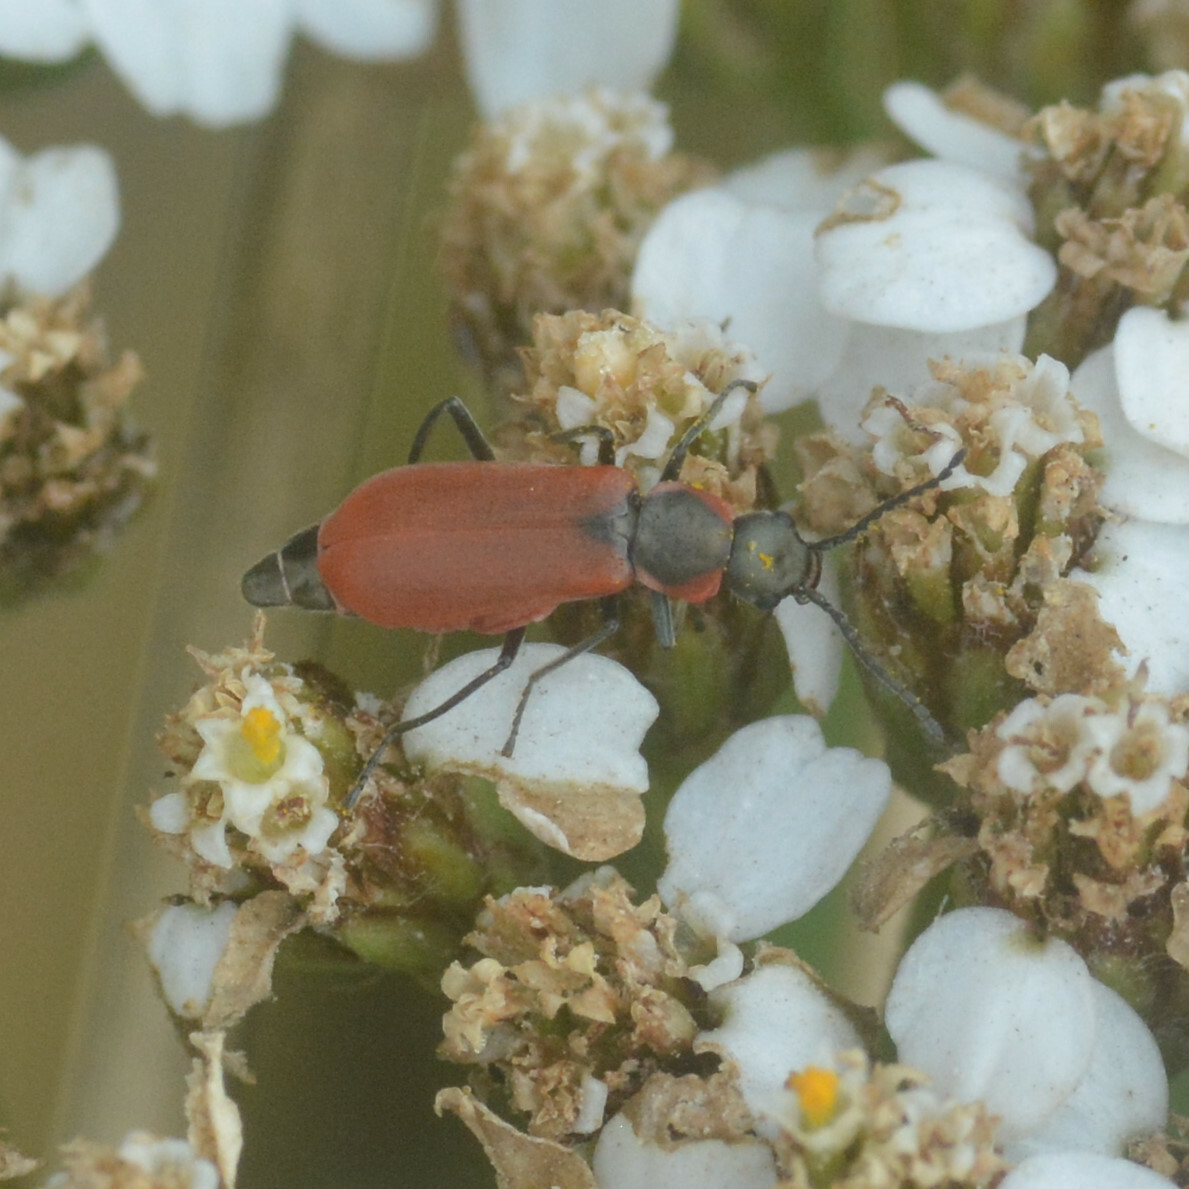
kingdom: Animalia
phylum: Arthropoda
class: Insecta
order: Coleoptera
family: Melyridae
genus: Anthocomus
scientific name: Anthocomus rufus
